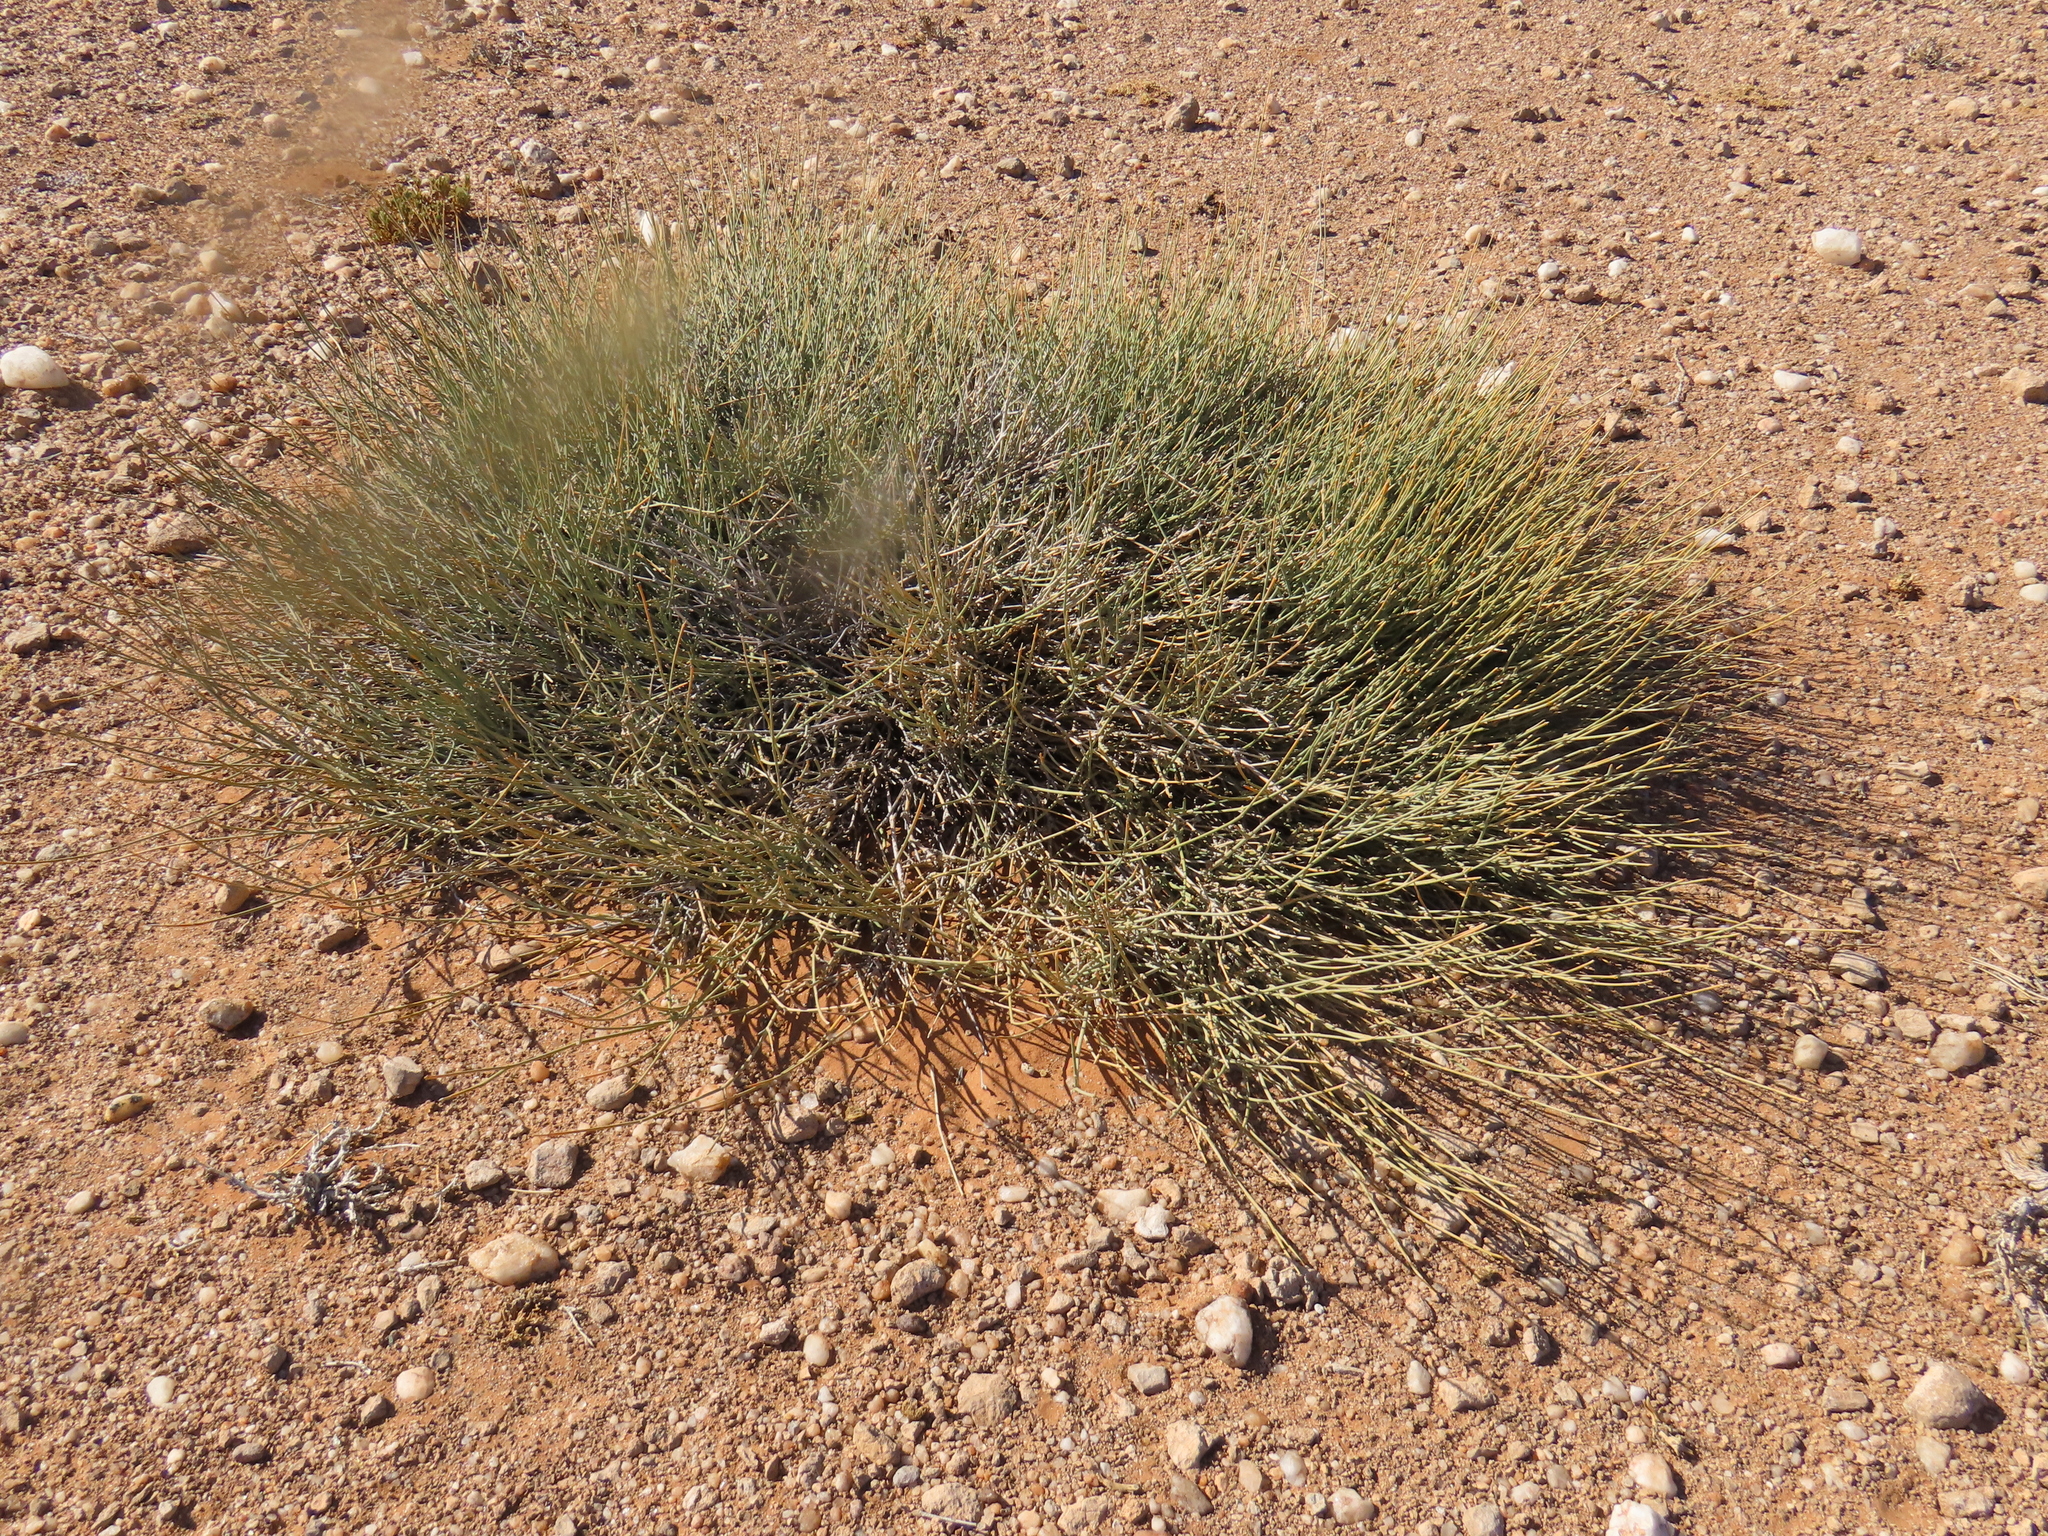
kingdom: Plantae
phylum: Tracheophyta
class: Magnoliopsida
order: Gentianales
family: Apocynaceae
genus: Orthanthera
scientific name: Orthanthera albida
